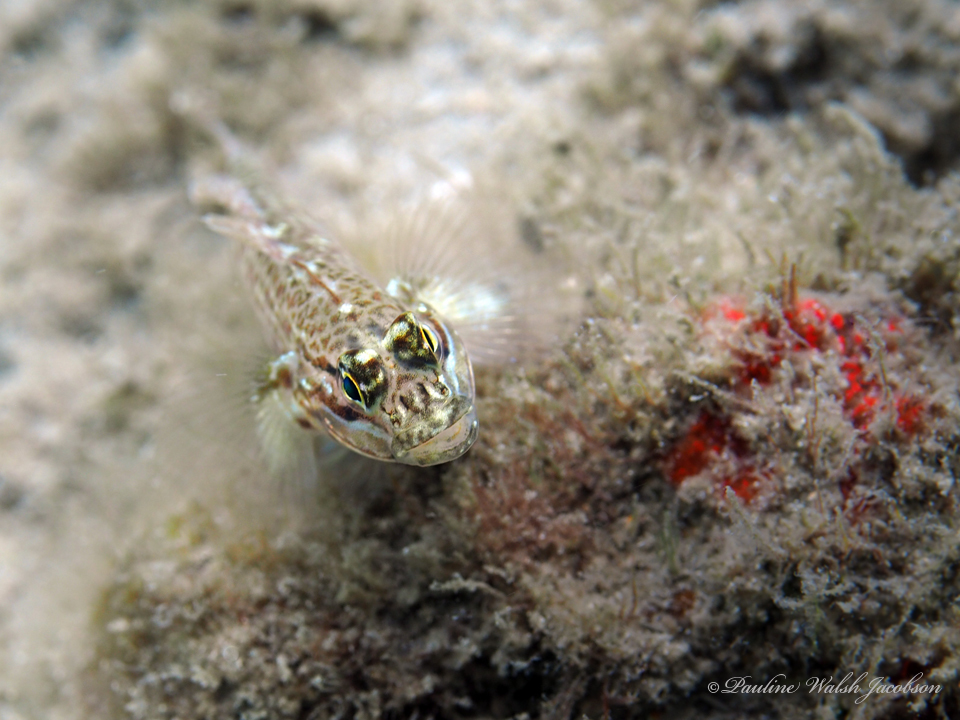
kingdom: Animalia
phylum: Chordata
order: Perciformes
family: Gobiidae
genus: Coryphopterus
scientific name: Coryphopterus dicrus
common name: Colon goby
